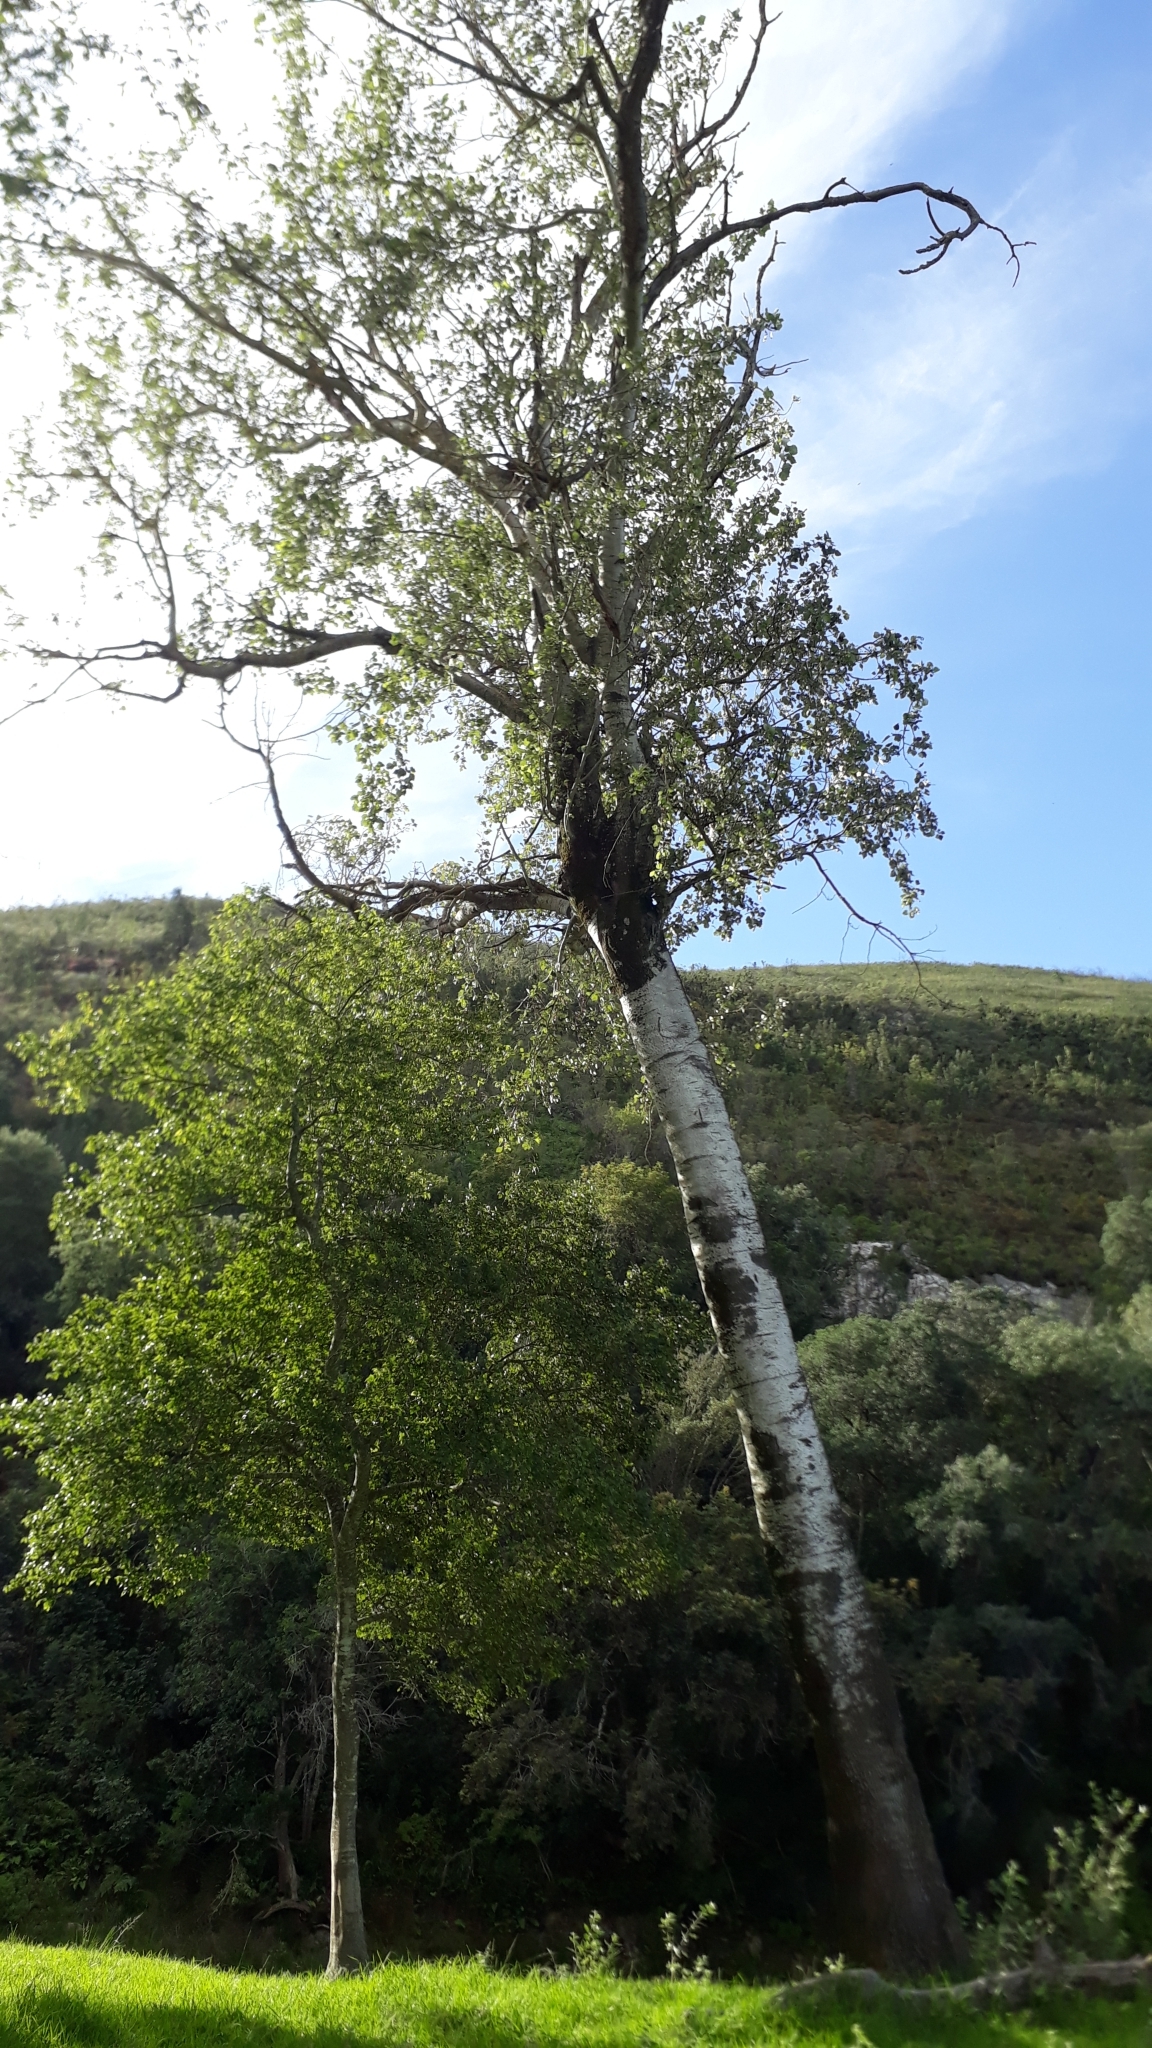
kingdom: Plantae
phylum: Tracheophyta
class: Magnoliopsida
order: Malpighiales
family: Salicaceae
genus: Populus
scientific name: Populus canescens
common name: Gray poplar
